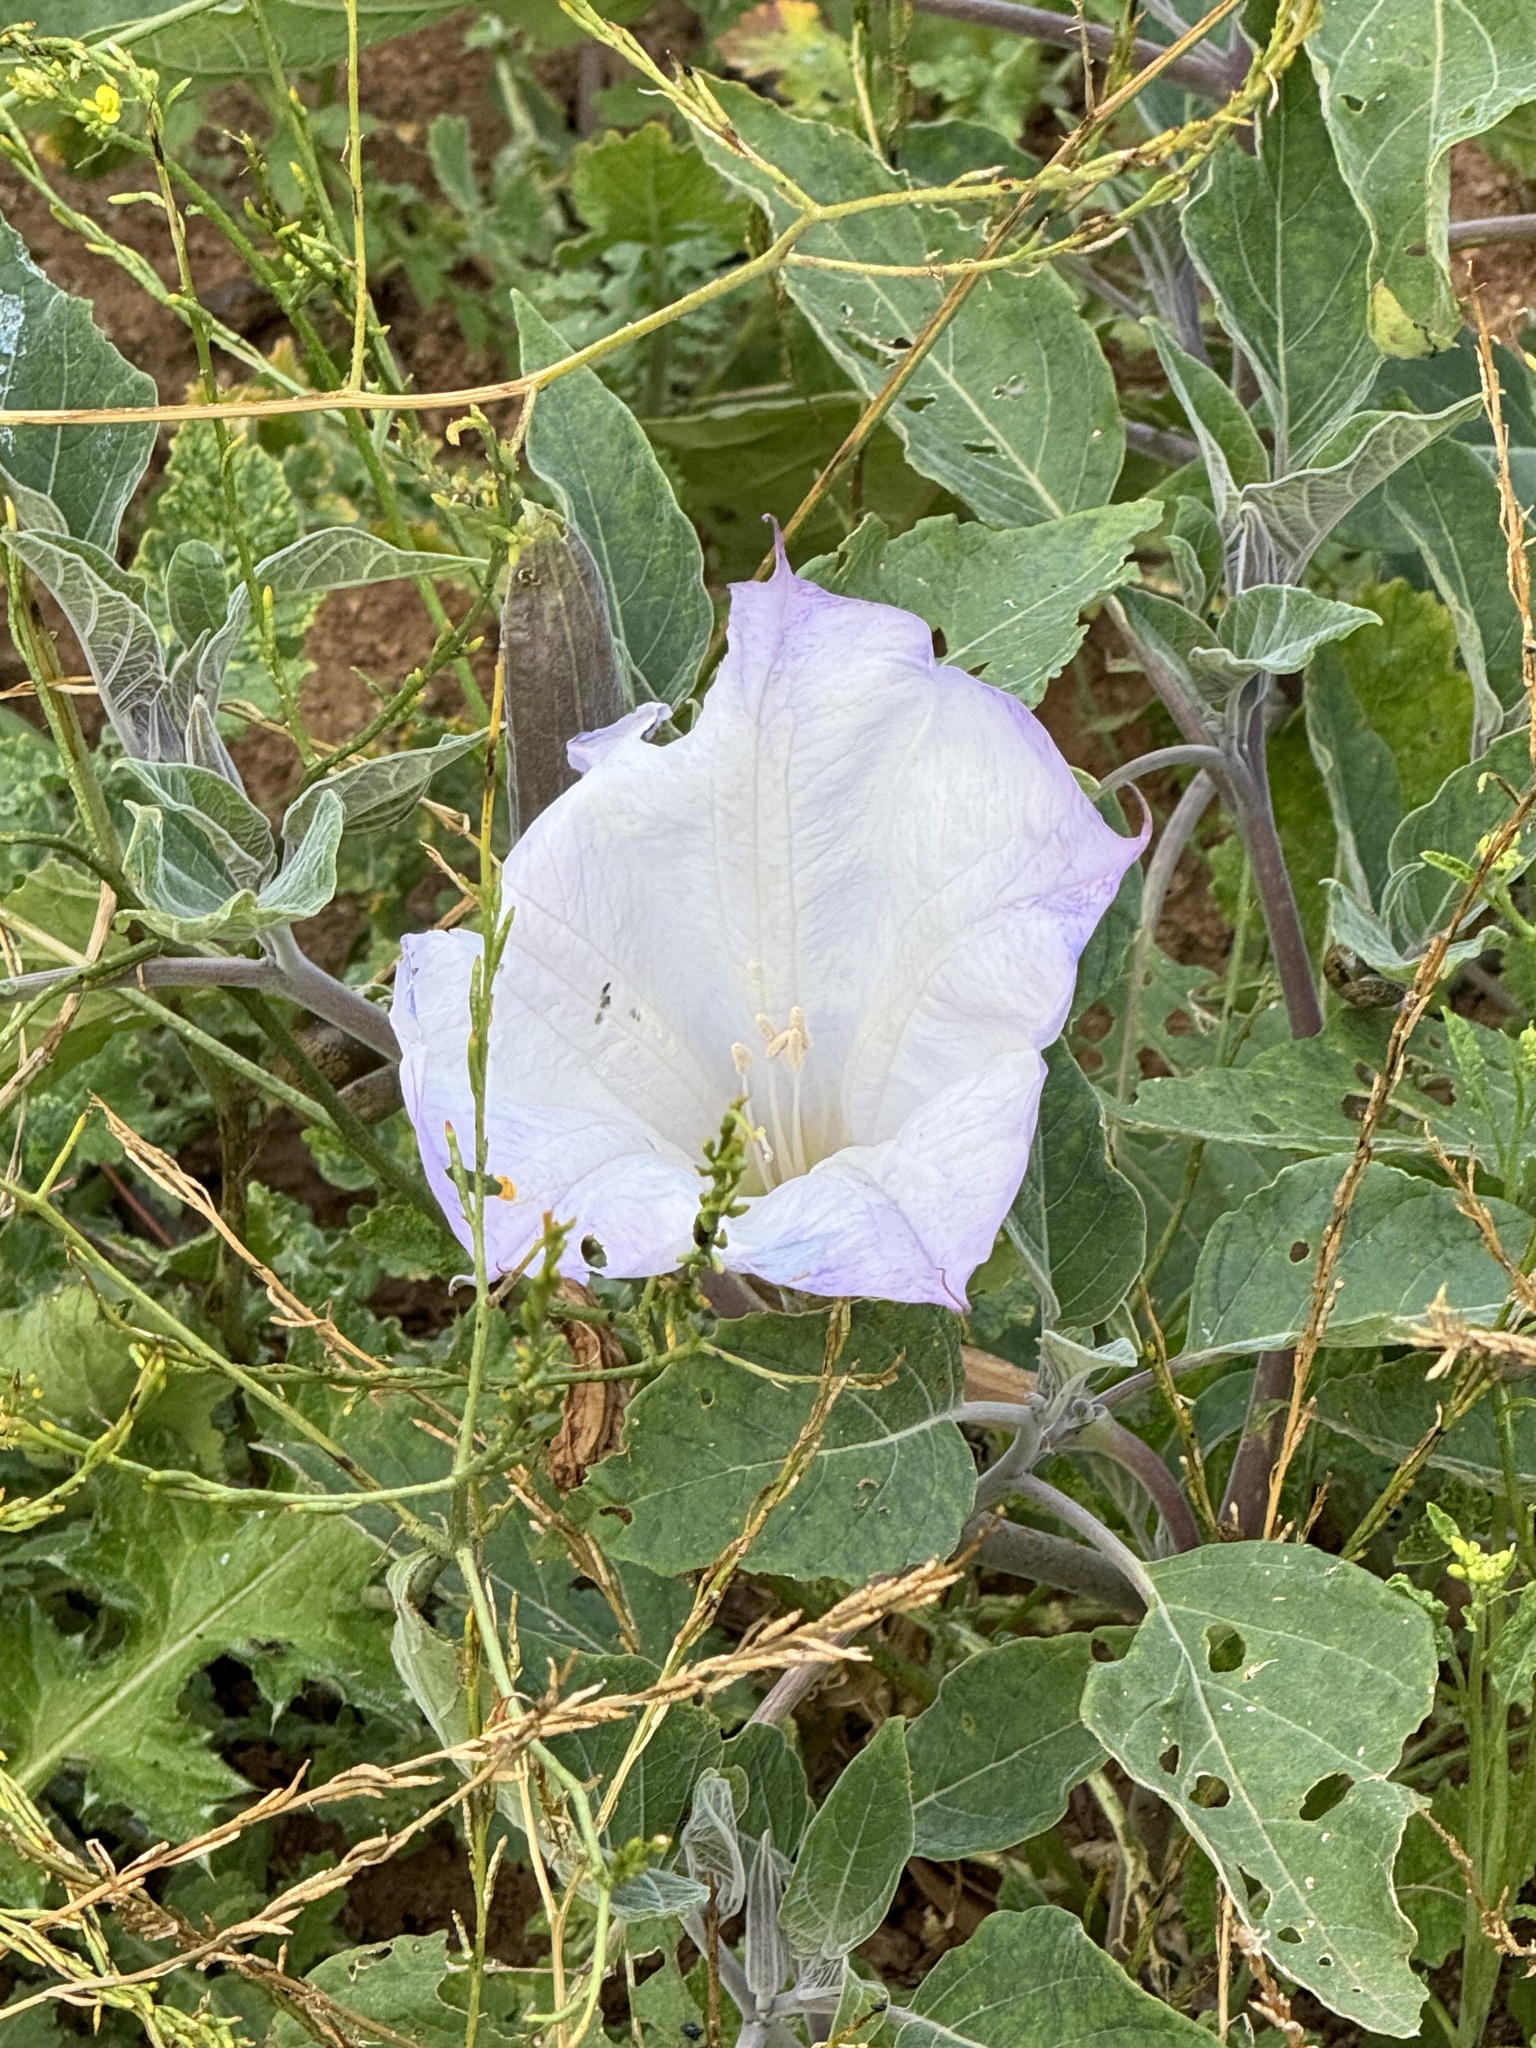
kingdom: Plantae
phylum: Tracheophyta
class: Magnoliopsida
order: Solanales
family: Solanaceae
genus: Datura
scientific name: Datura wrightii
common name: Sacred thorn-apple
